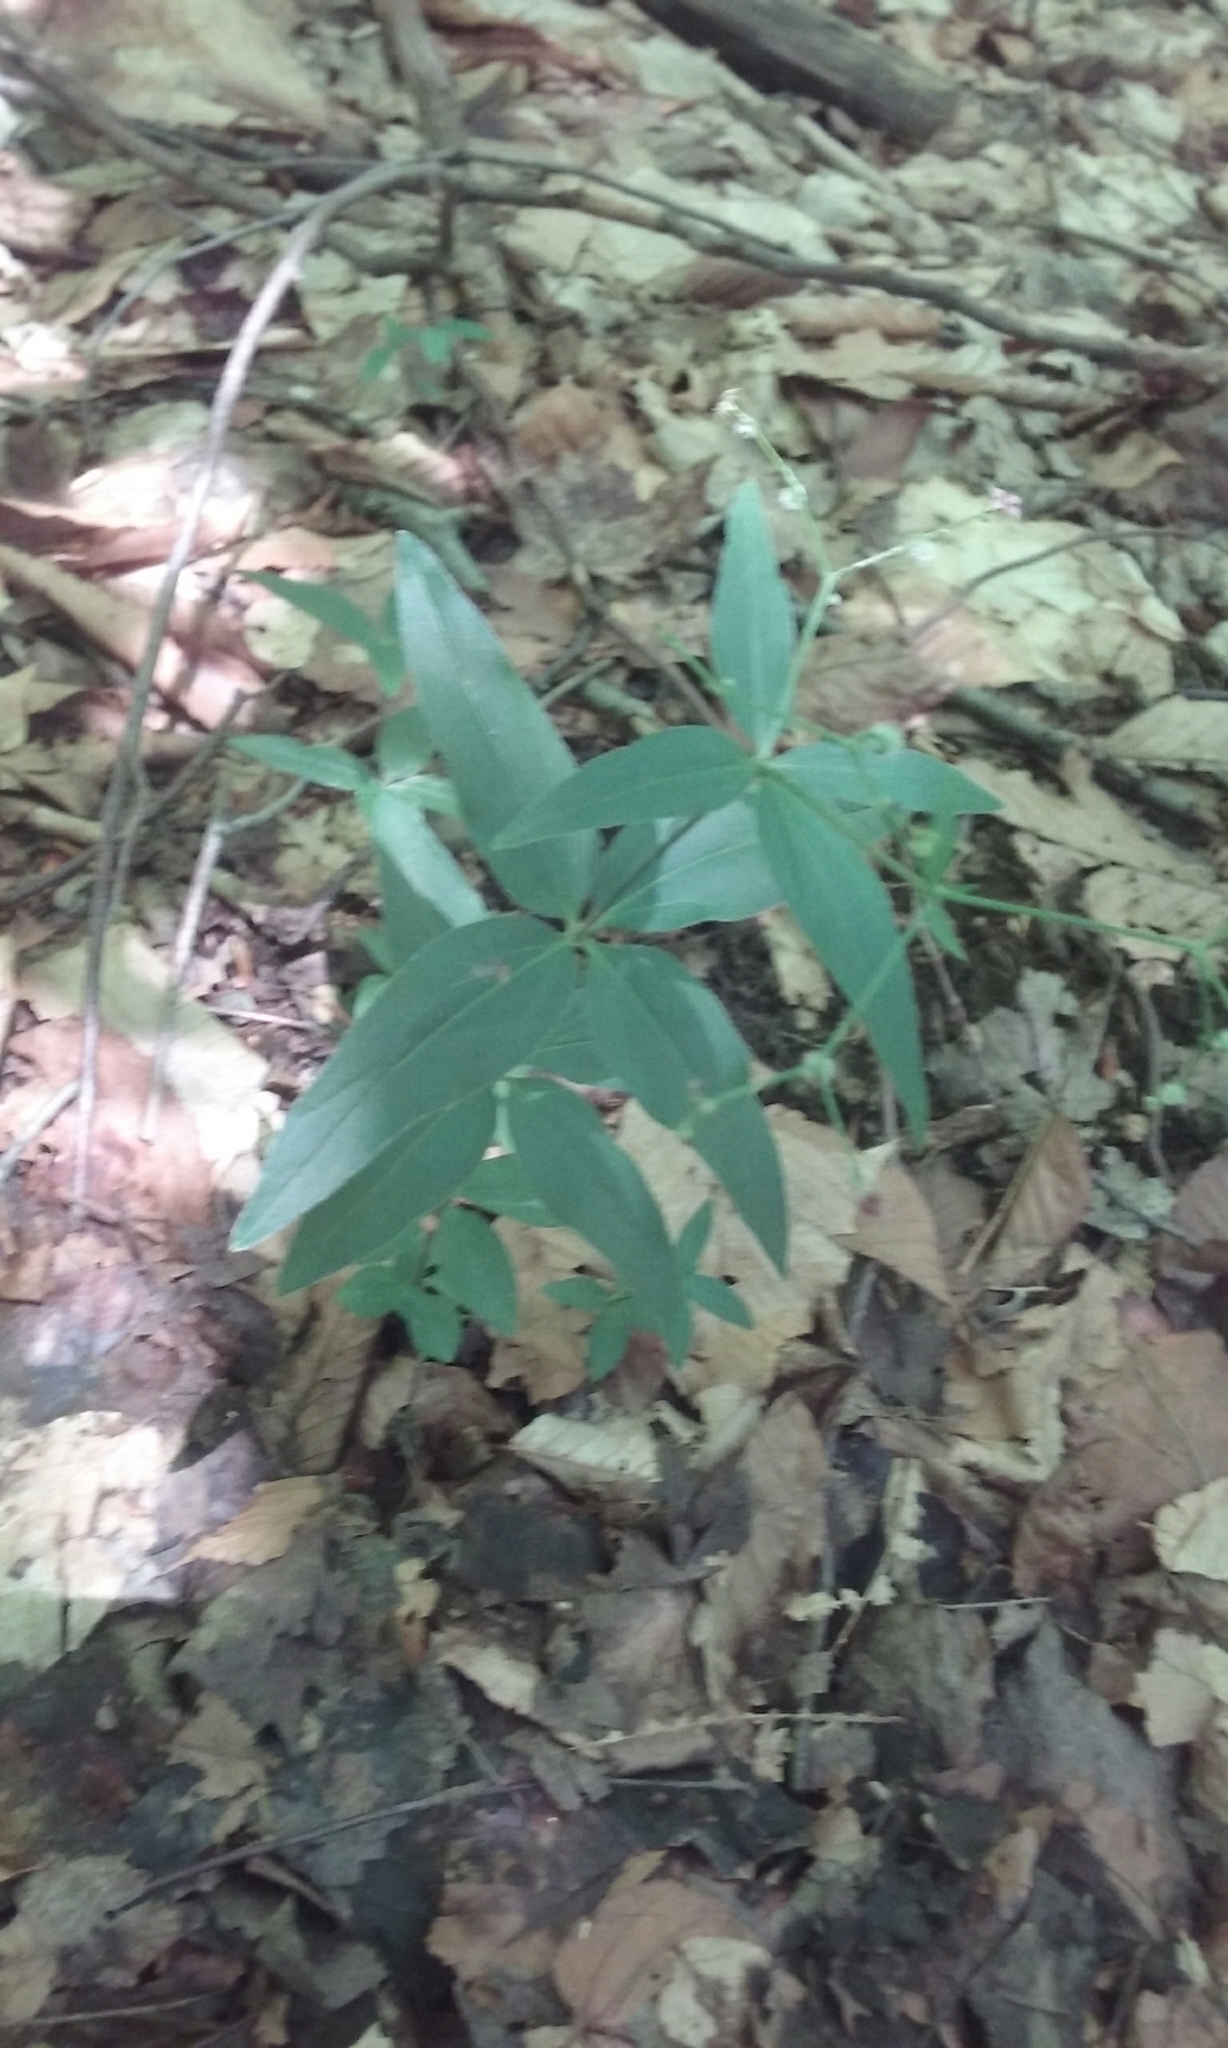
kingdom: Plantae
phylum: Tracheophyta
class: Magnoliopsida
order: Gentianales
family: Rubiaceae
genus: Galium
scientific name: Galium circaezans
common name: Forest bedstraw
